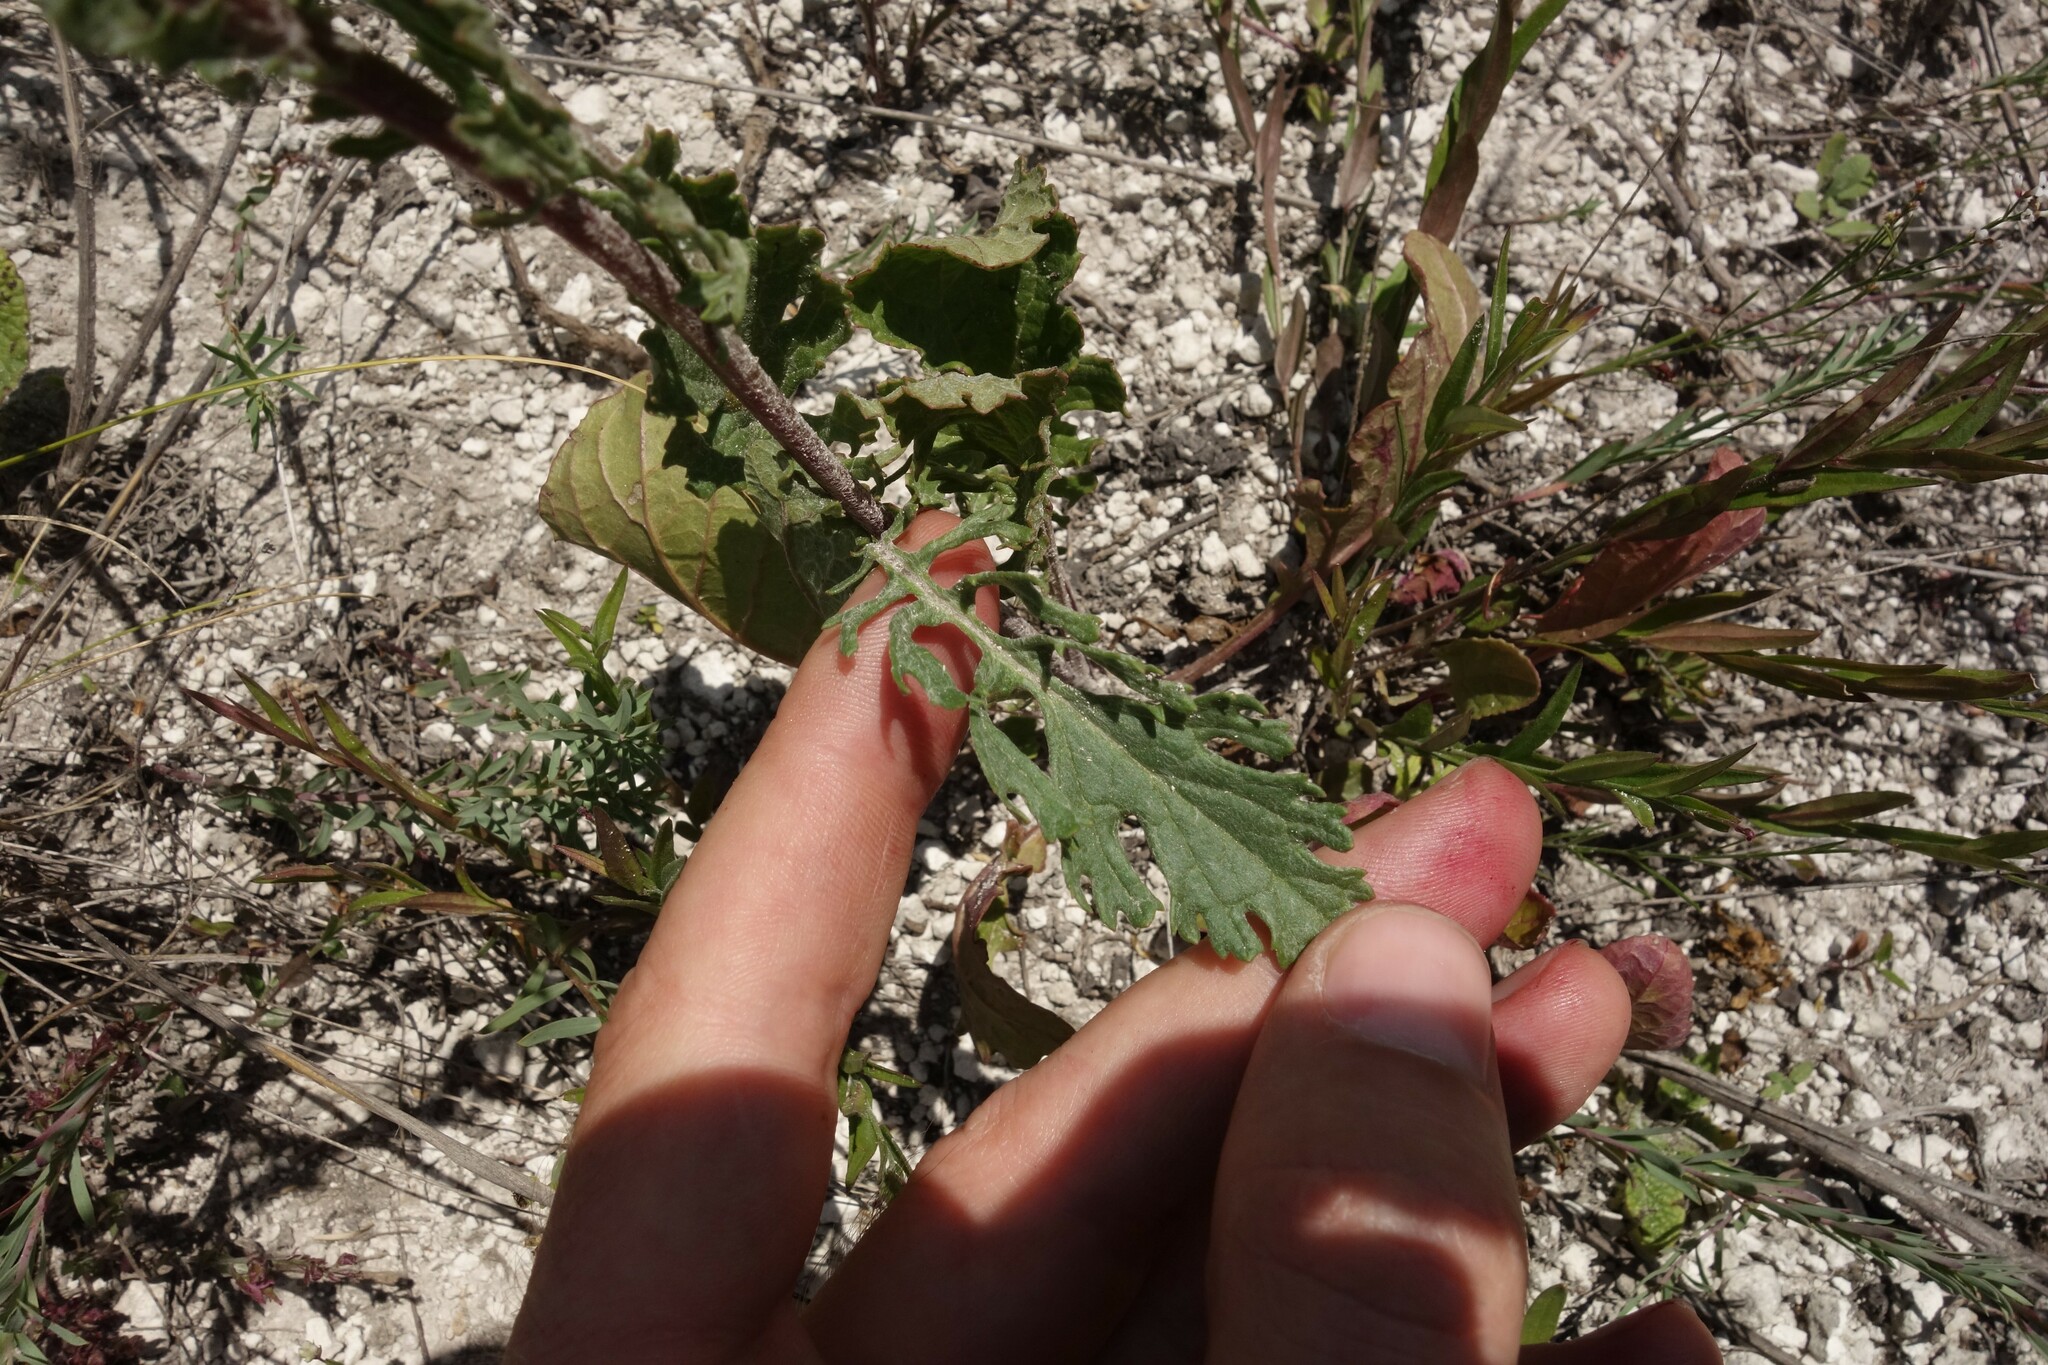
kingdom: Plantae
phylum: Tracheophyta
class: Magnoliopsida
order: Asterales
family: Asteraceae
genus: Jacobaea
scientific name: Jacobaea vulgaris
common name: Stinking willie
